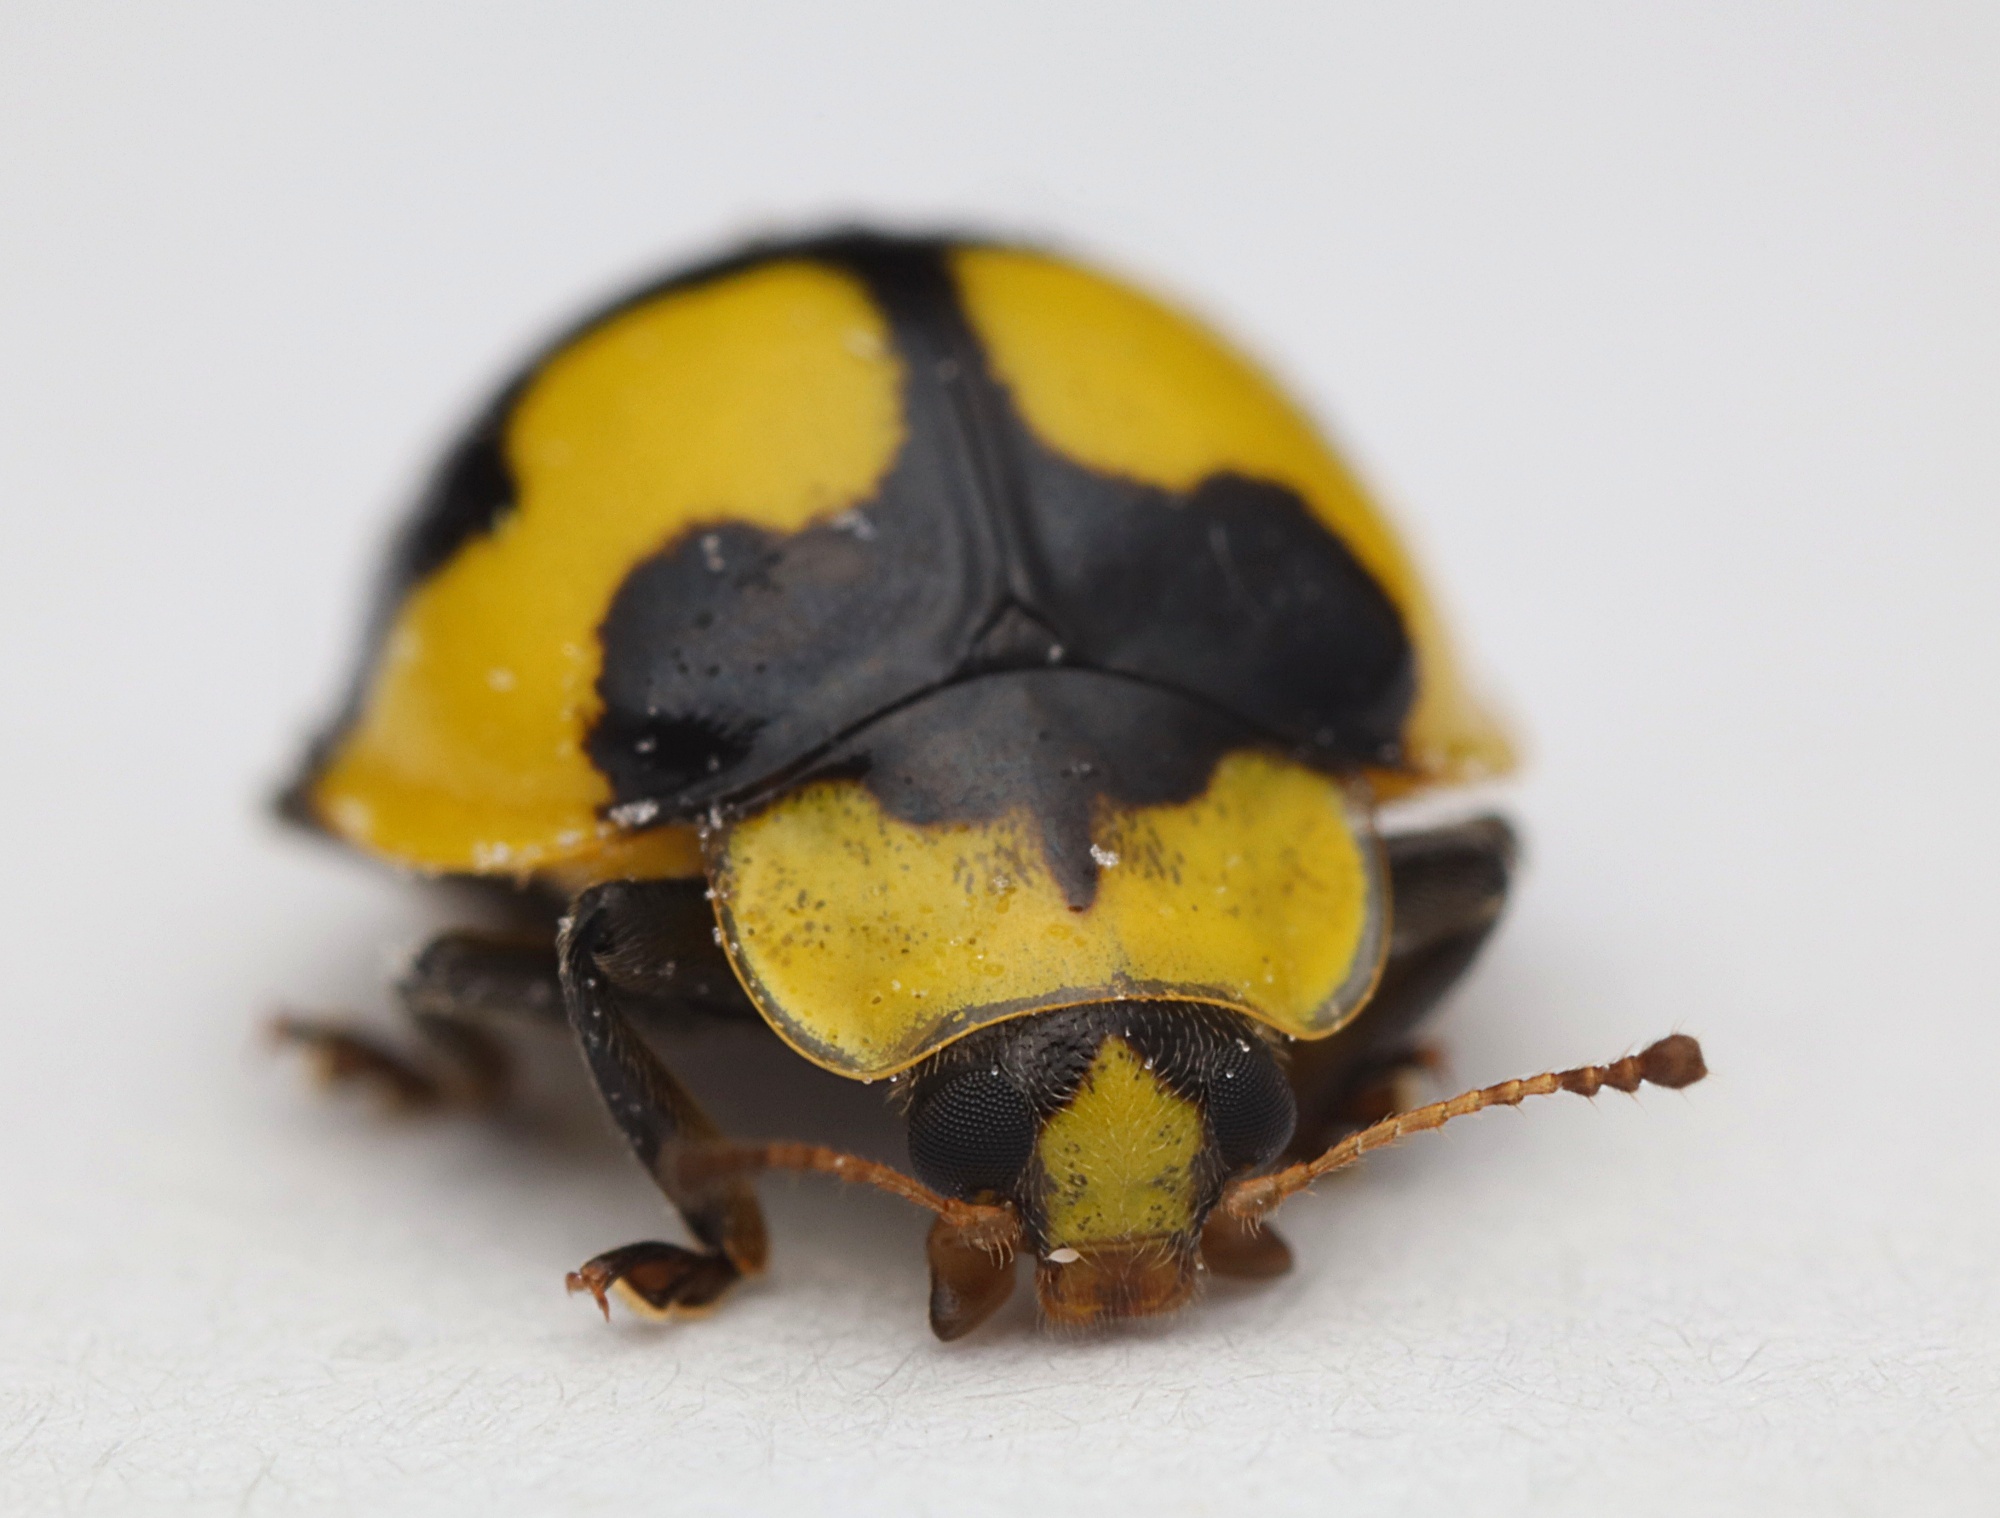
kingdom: Animalia
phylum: Arthropoda
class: Insecta
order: Coleoptera
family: Coccinellidae
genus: Illeis
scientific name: Illeis galbula
